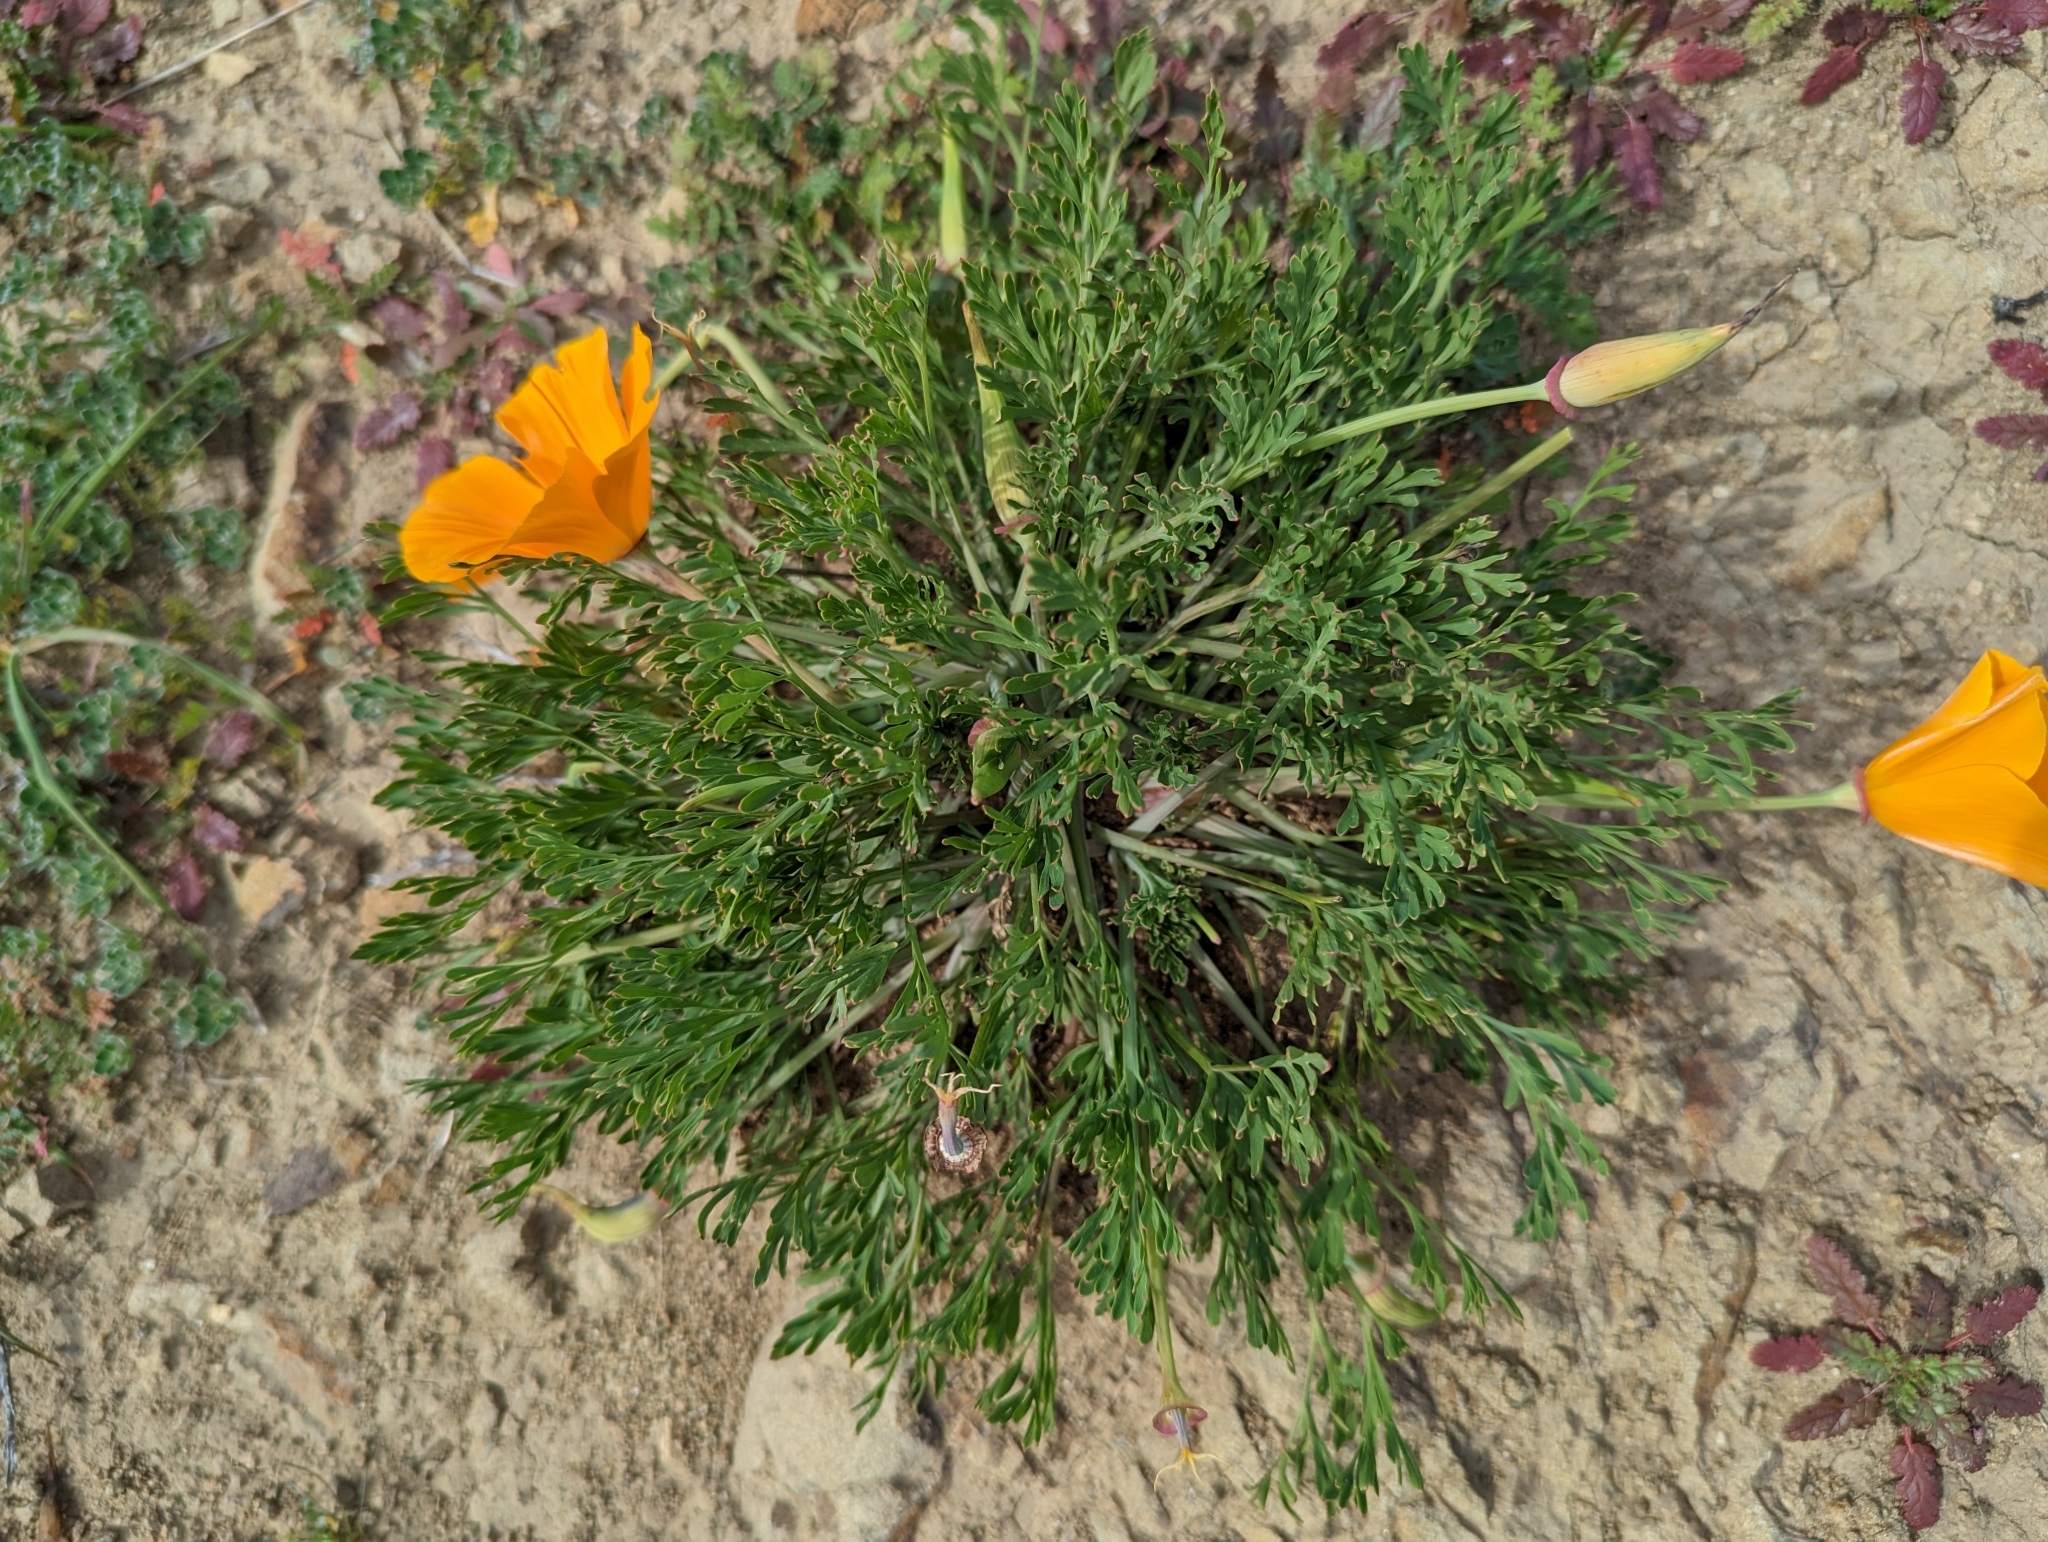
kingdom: Plantae
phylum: Tracheophyta
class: Magnoliopsida
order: Ranunculales
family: Papaveraceae
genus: Eschscholzia
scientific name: Eschscholzia californica
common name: California poppy
